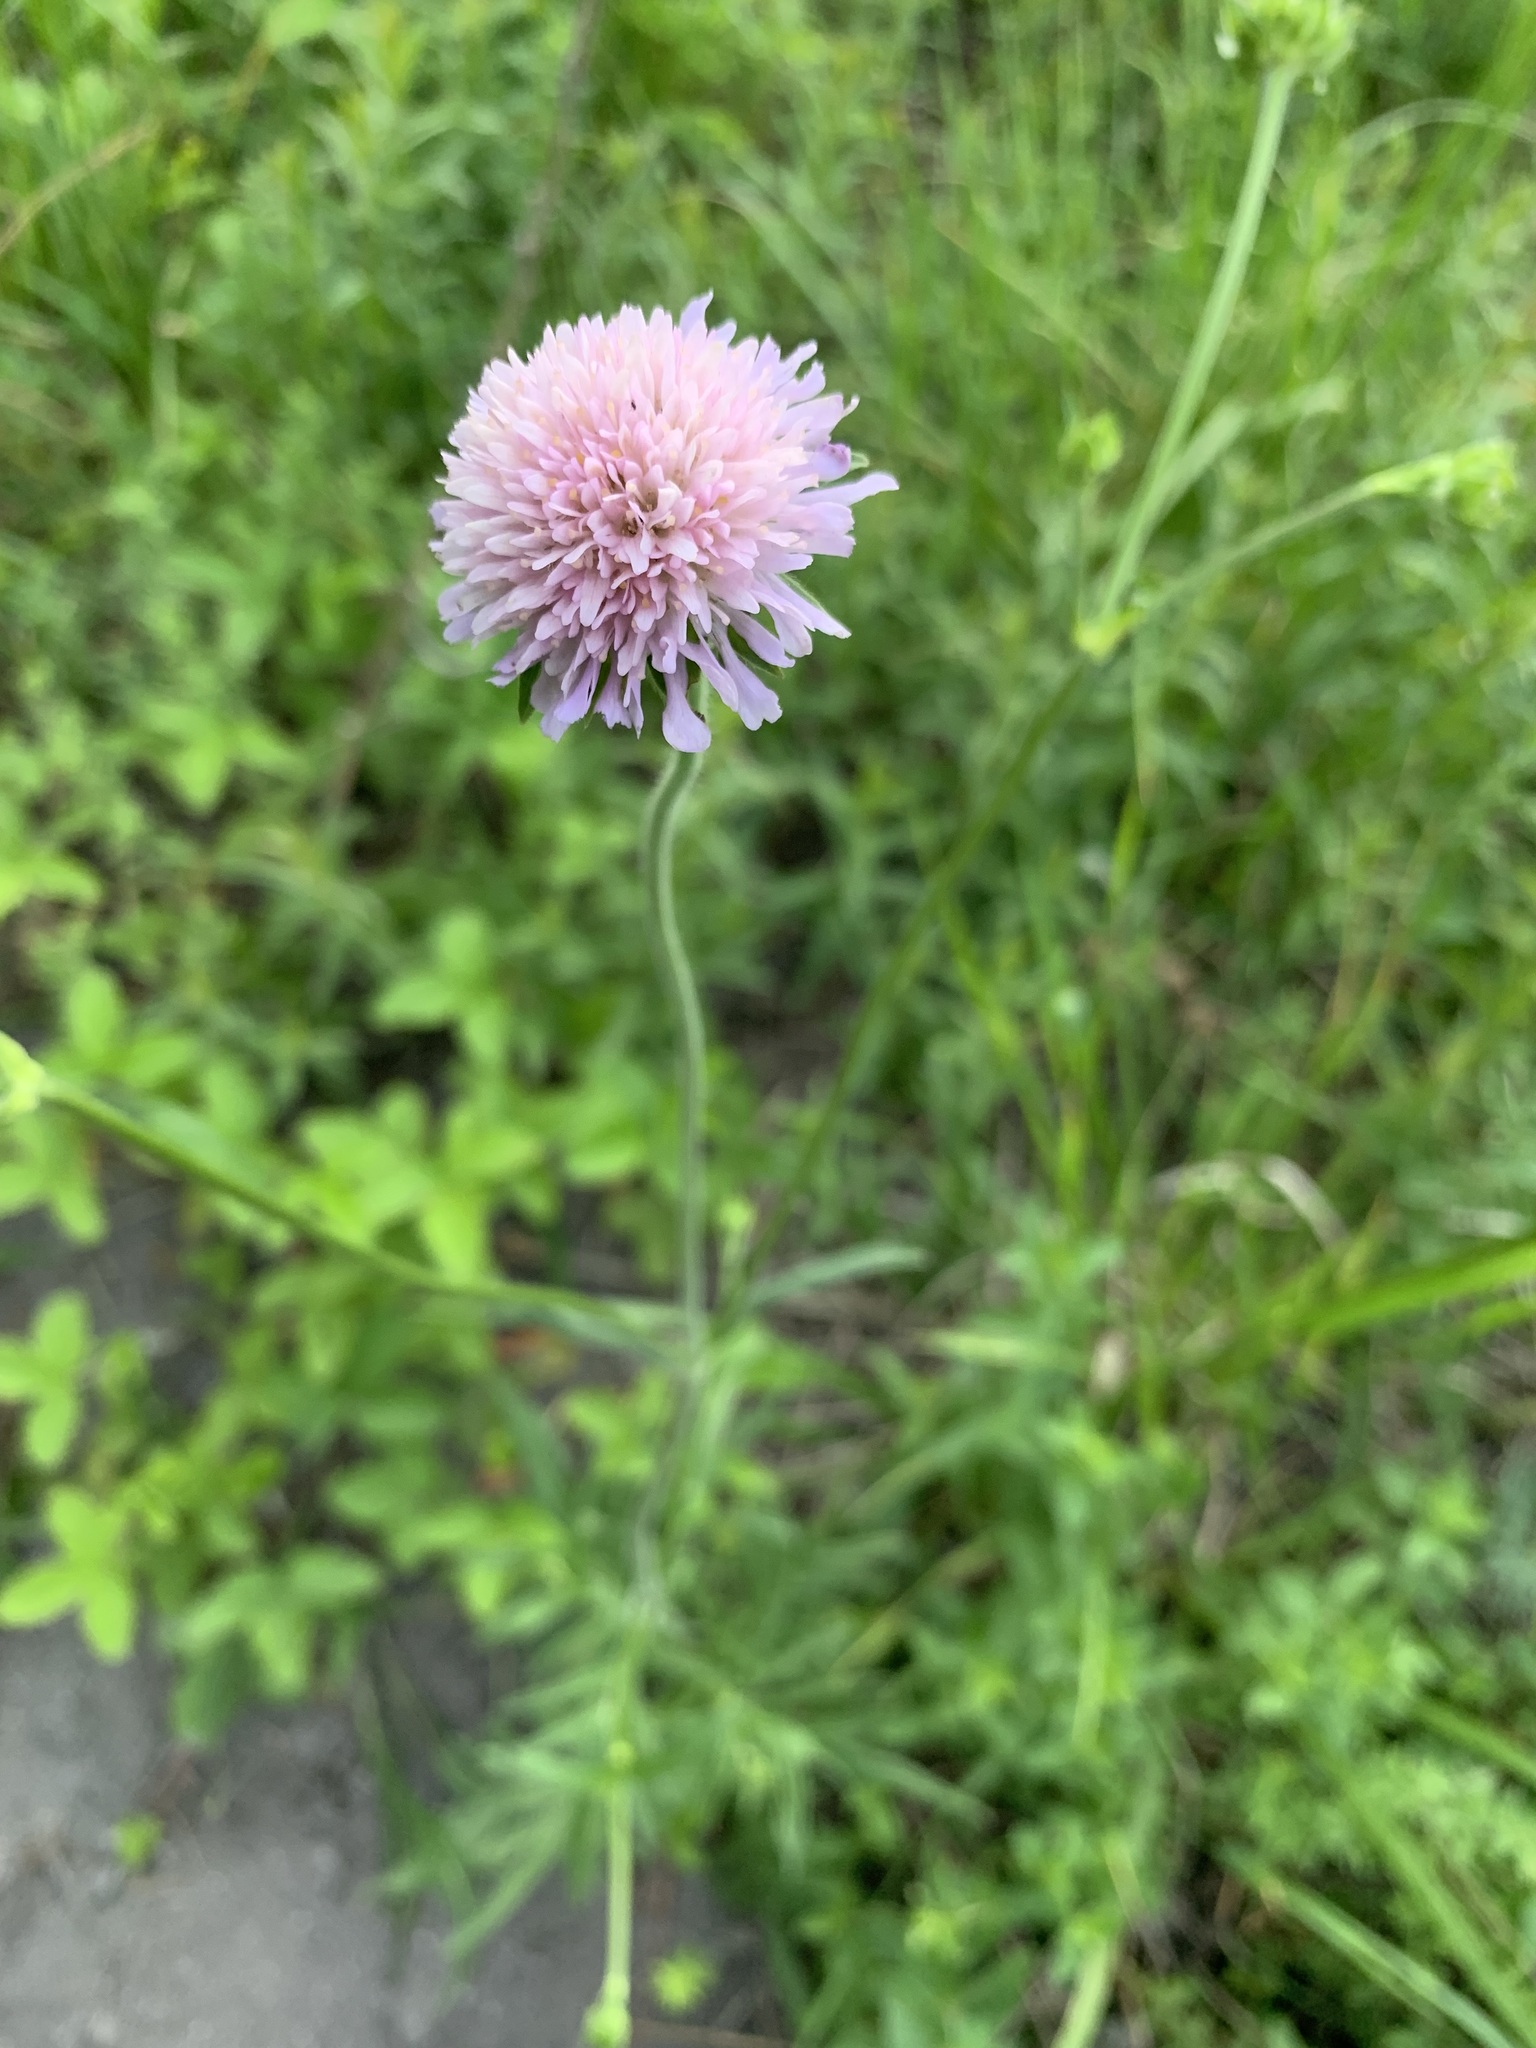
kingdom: Plantae
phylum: Tracheophyta
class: Magnoliopsida
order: Dipsacales
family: Caprifoliaceae
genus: Knautia
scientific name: Knautia arvensis
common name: Field scabiosa
